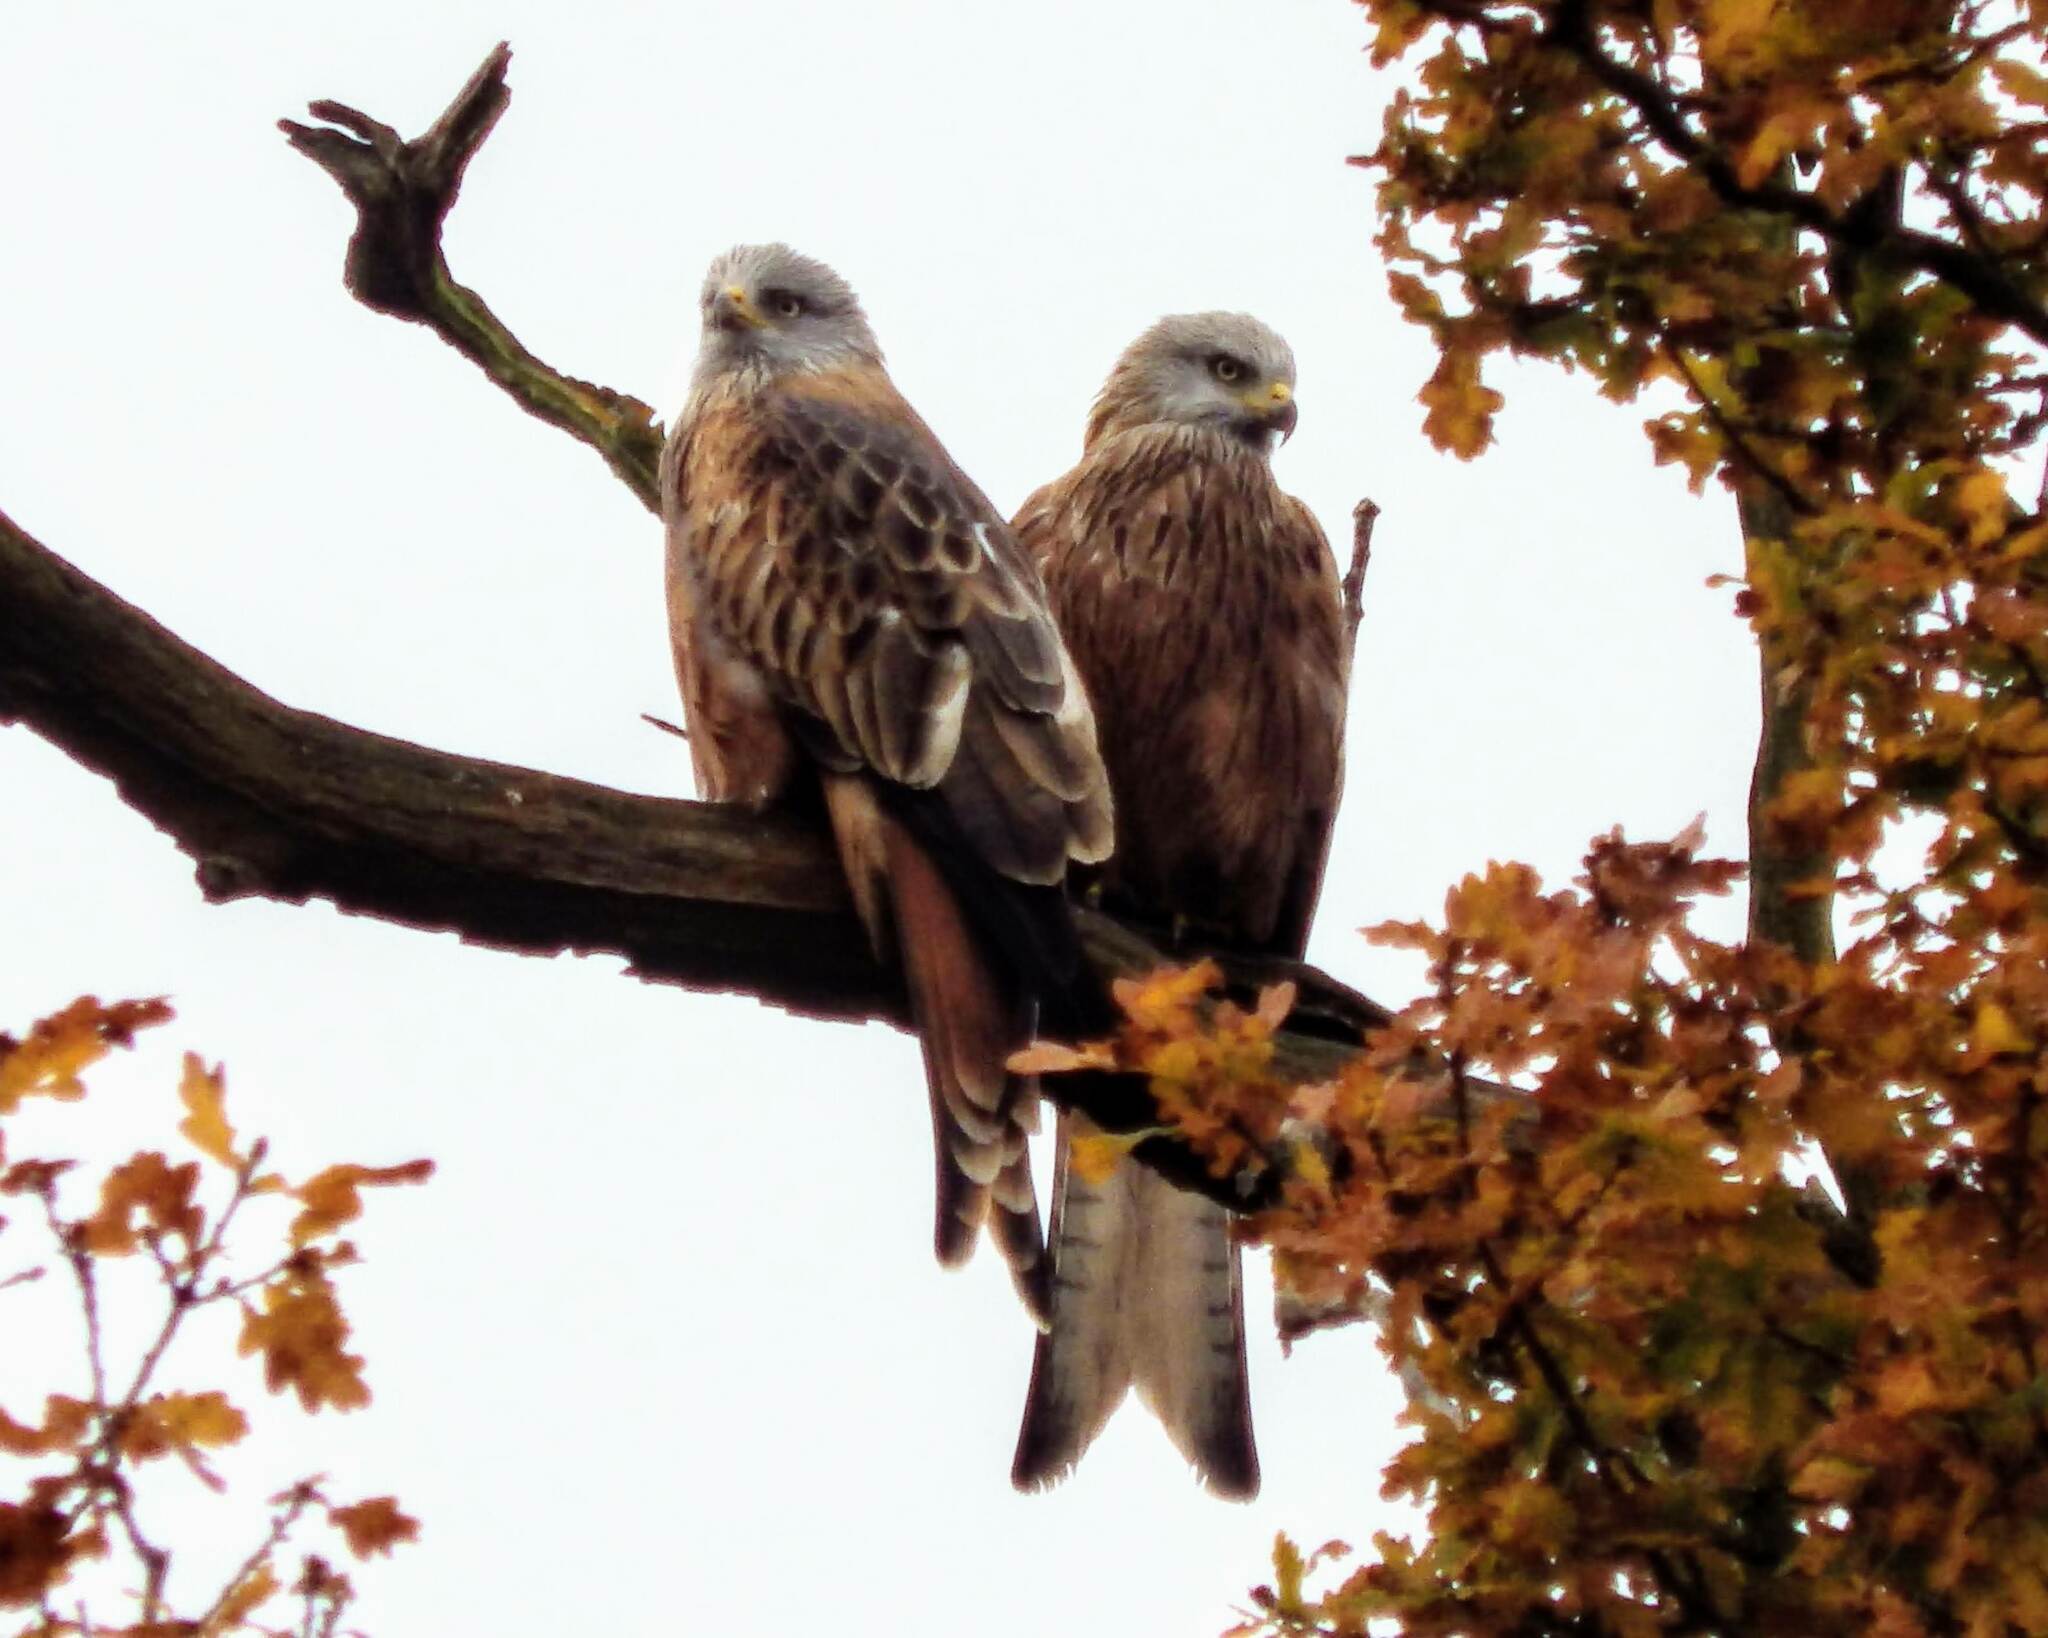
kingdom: Animalia
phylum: Chordata
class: Aves
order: Accipitriformes
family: Accipitridae
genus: Milvus
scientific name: Milvus milvus
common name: Red kite
